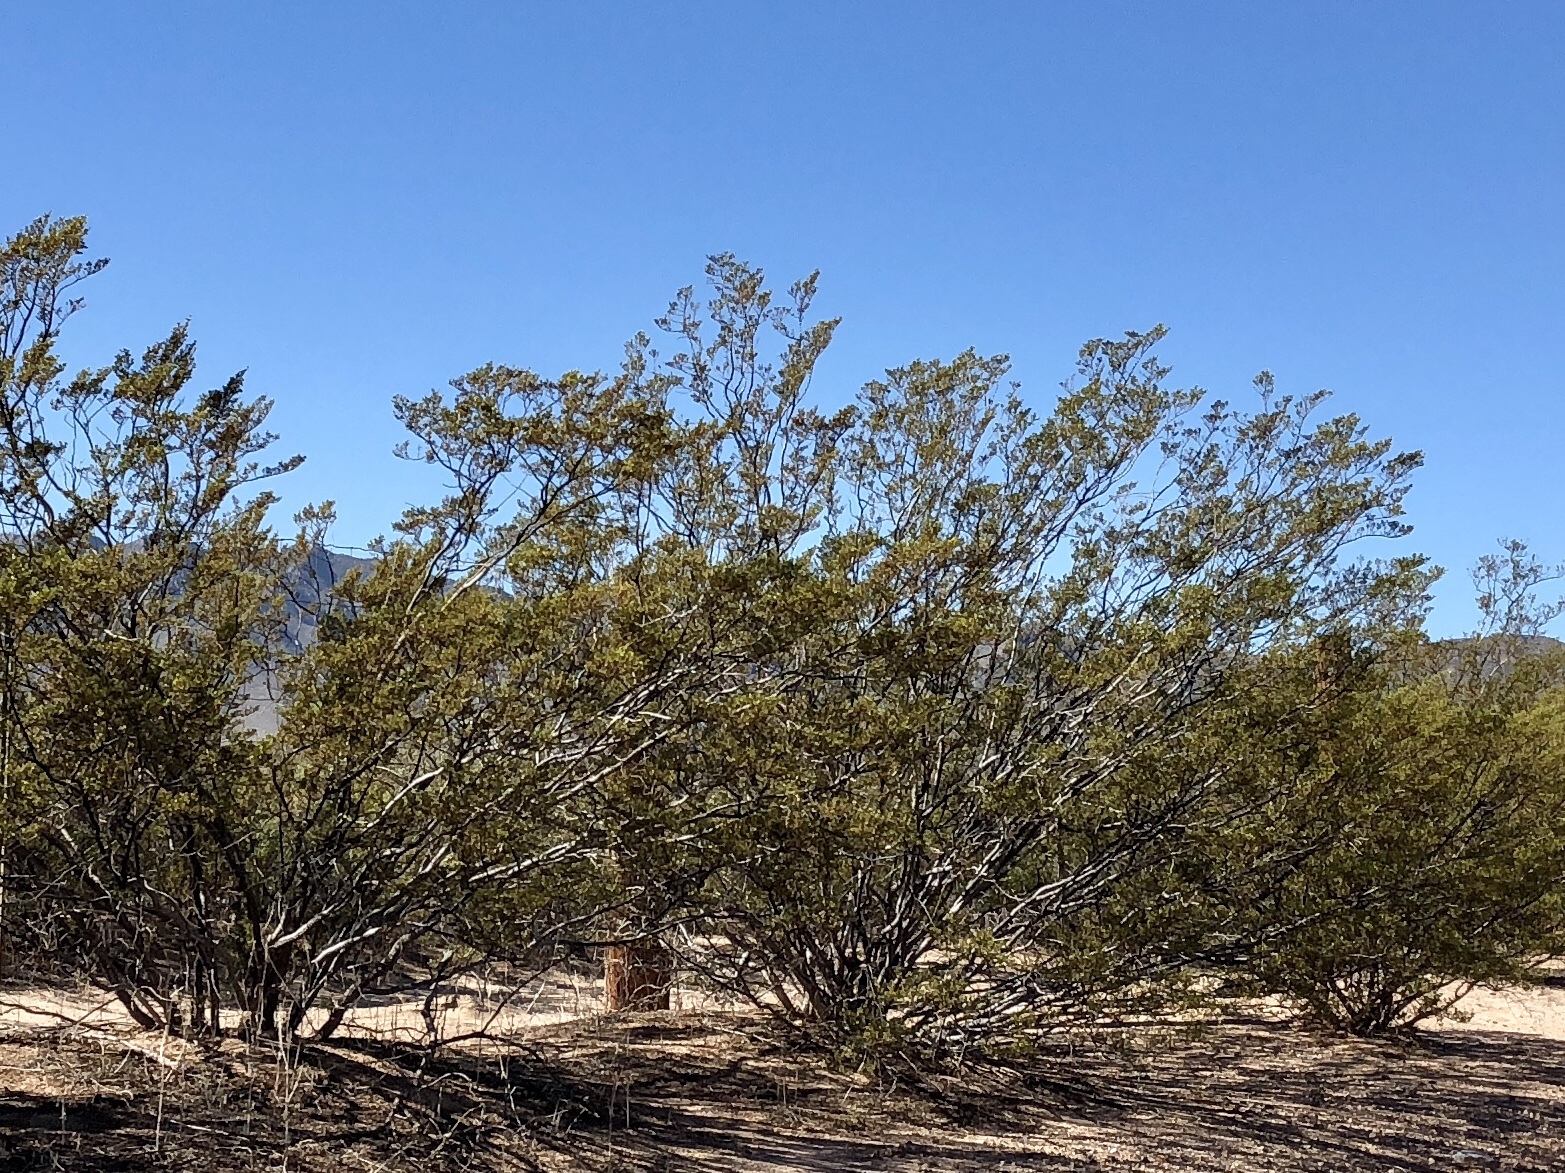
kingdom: Plantae
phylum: Tracheophyta
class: Magnoliopsida
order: Zygophyllales
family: Zygophyllaceae
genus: Larrea
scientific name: Larrea tridentata
